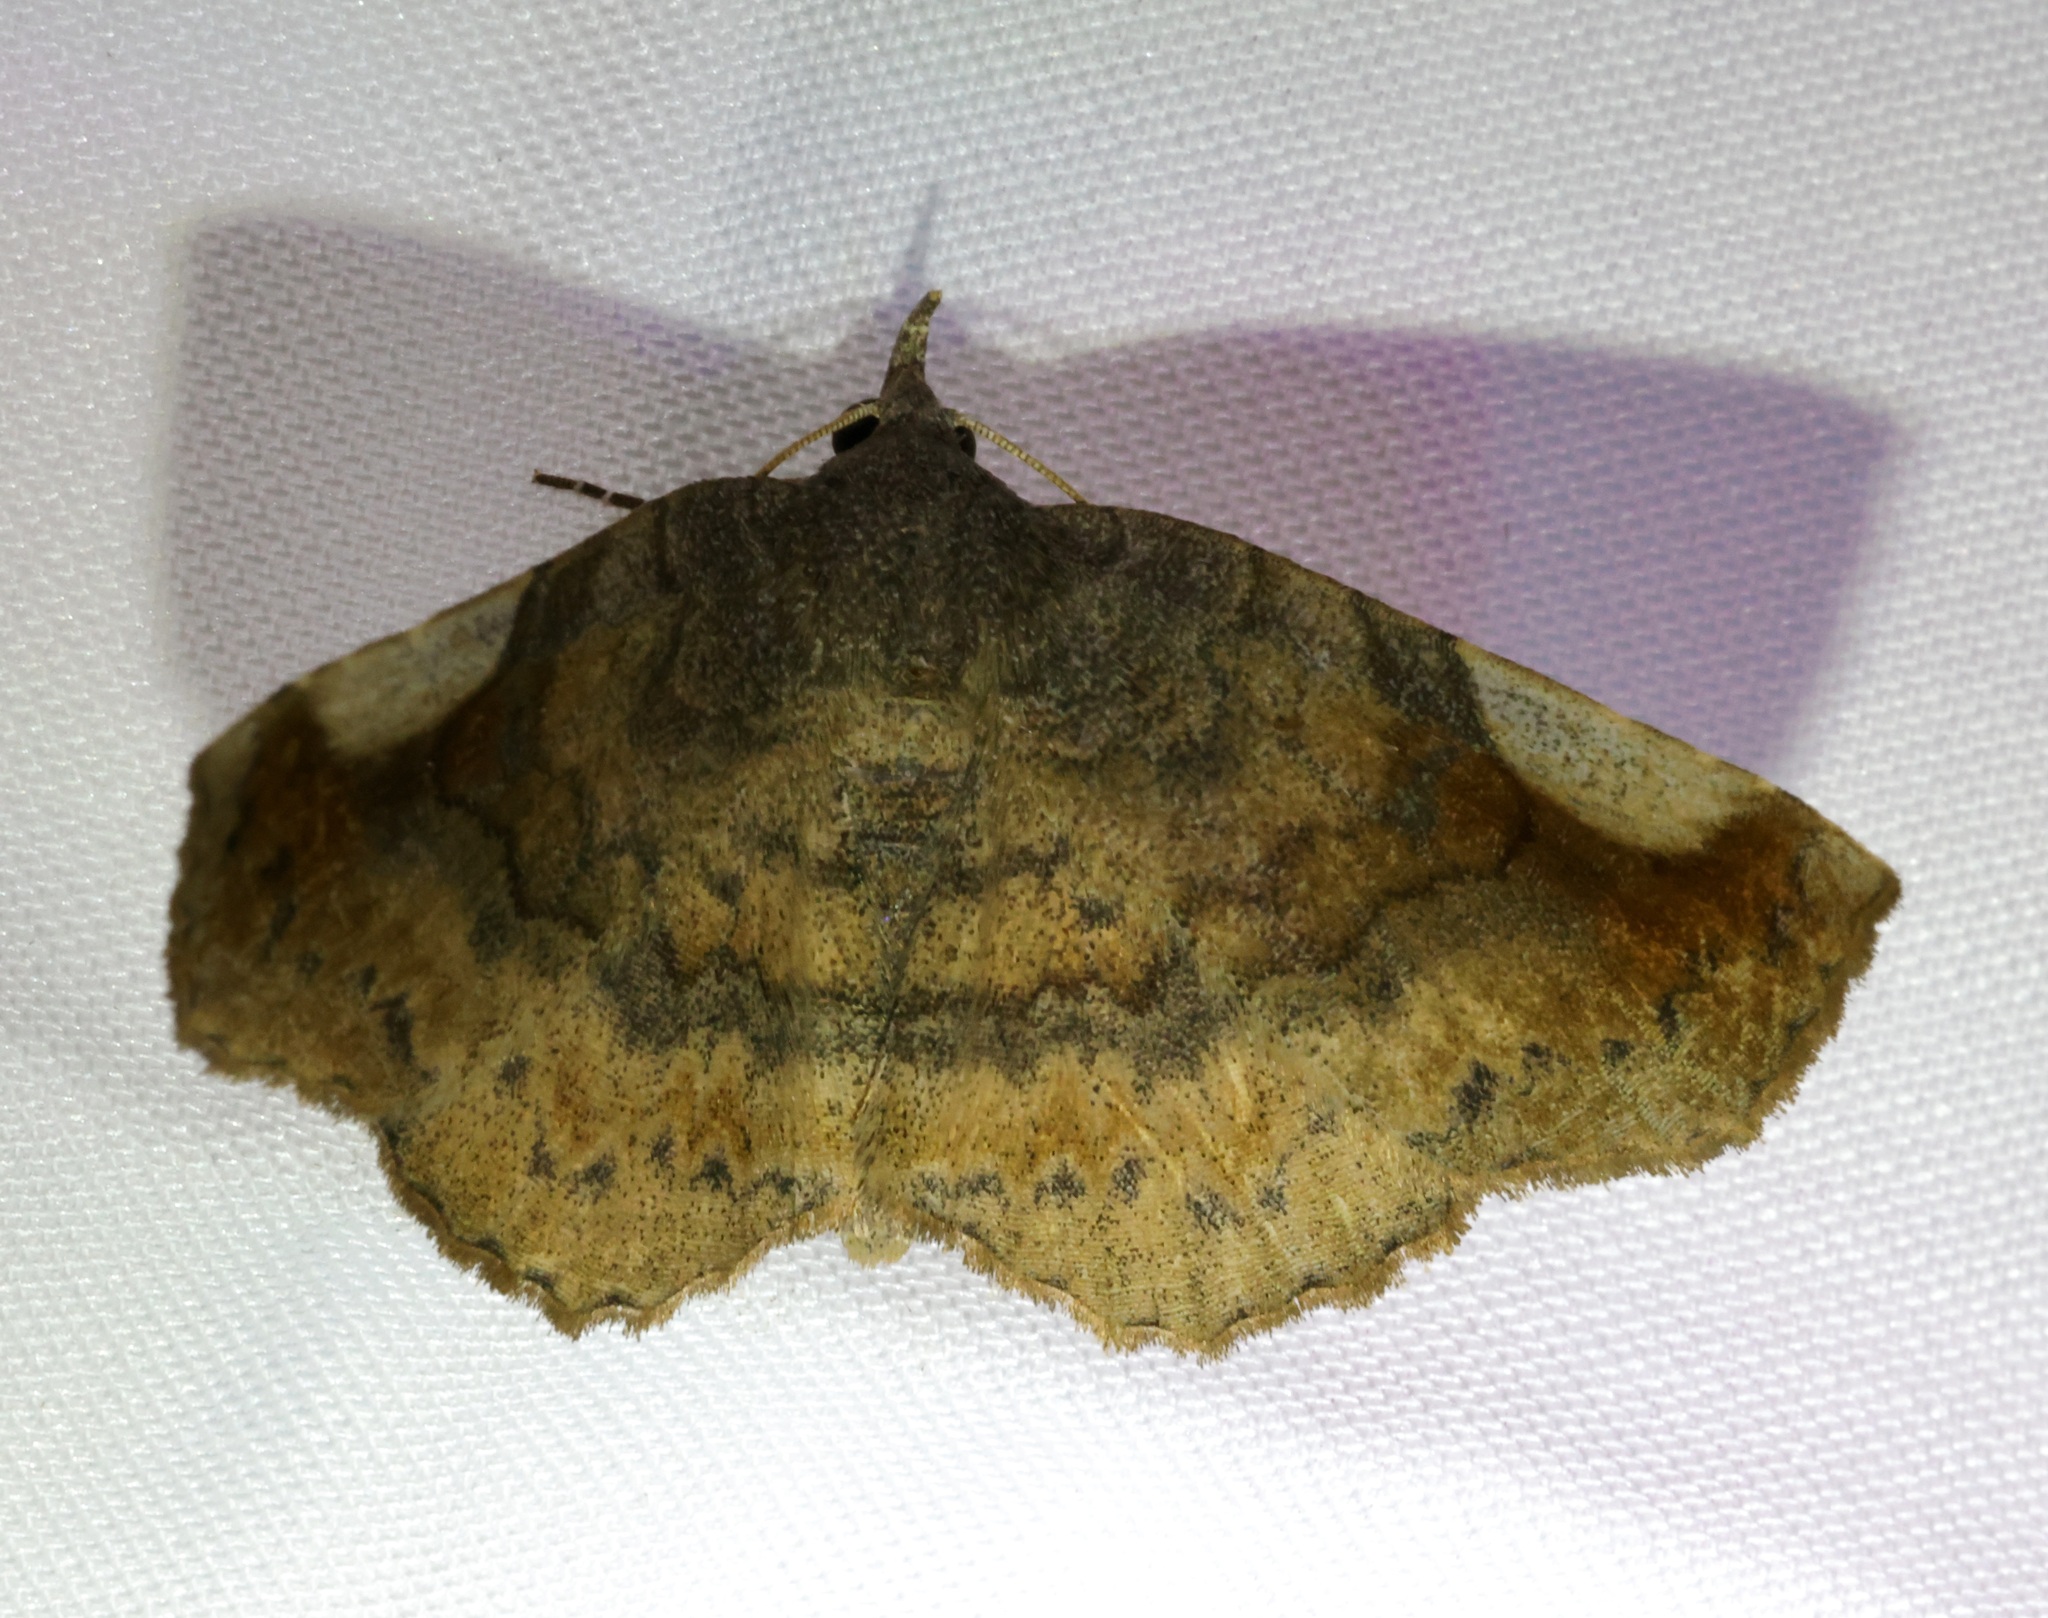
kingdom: Animalia
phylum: Arthropoda
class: Insecta
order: Lepidoptera
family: Erebidae
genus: Pangrapta
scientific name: Pangrapta perturbans
